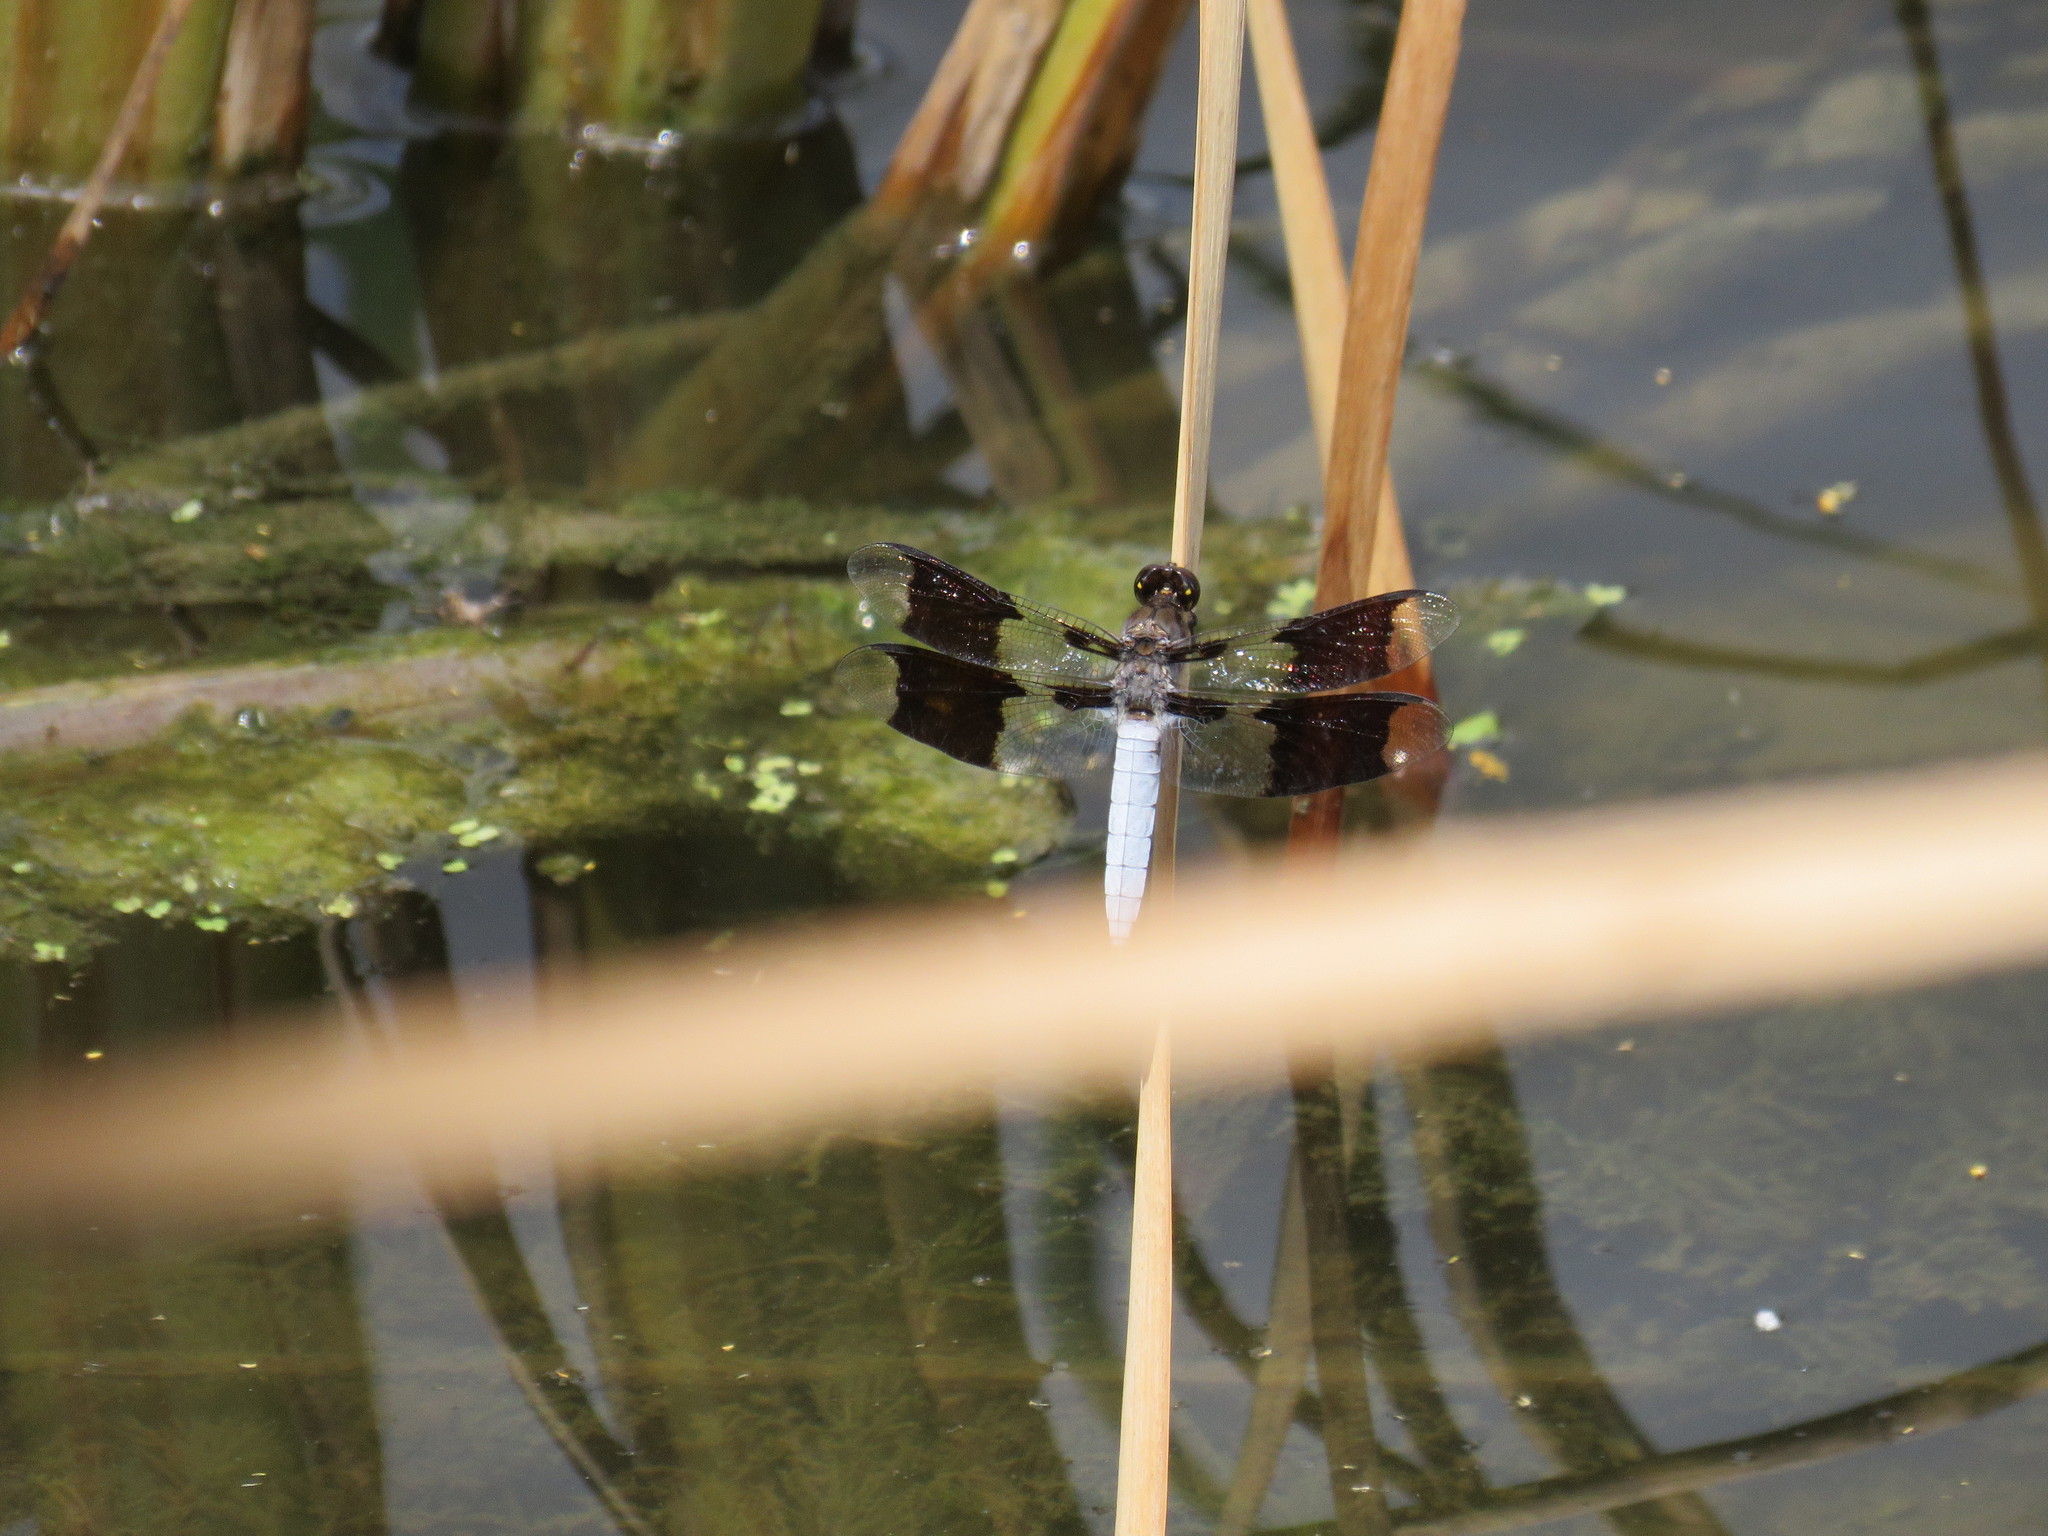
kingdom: Animalia
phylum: Arthropoda
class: Insecta
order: Odonata
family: Libellulidae
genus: Plathemis
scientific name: Plathemis lydia
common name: Common whitetail
